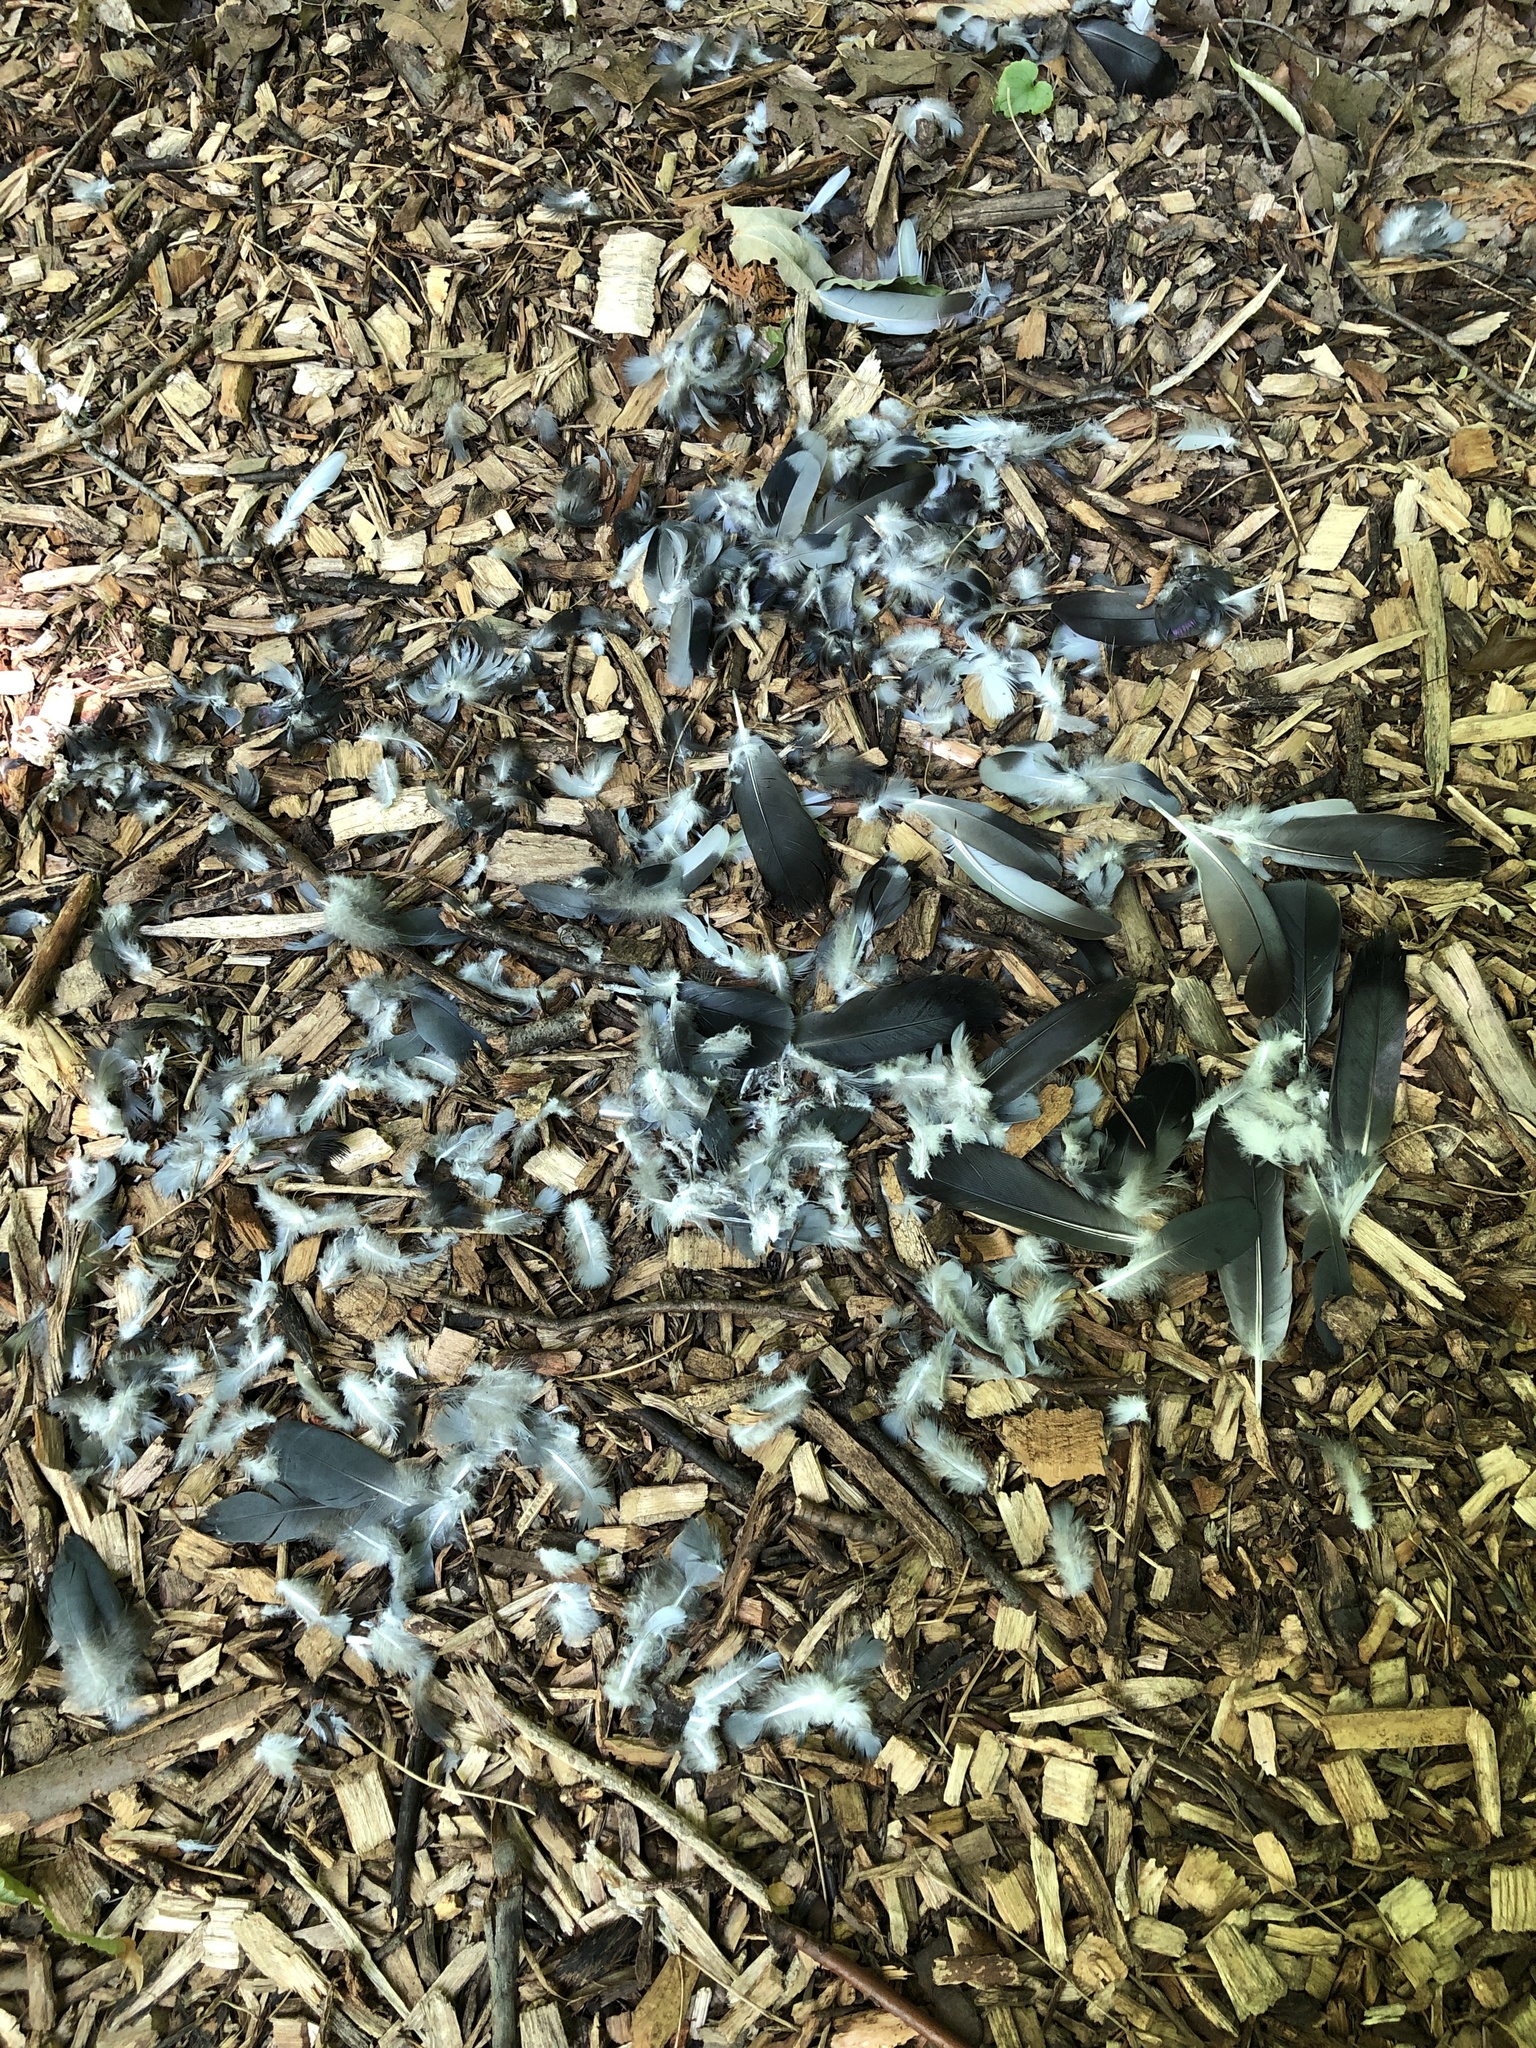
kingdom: Animalia
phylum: Chordata
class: Aves
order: Columbiformes
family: Columbidae
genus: Columba
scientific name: Columba livia
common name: Rock pigeon
